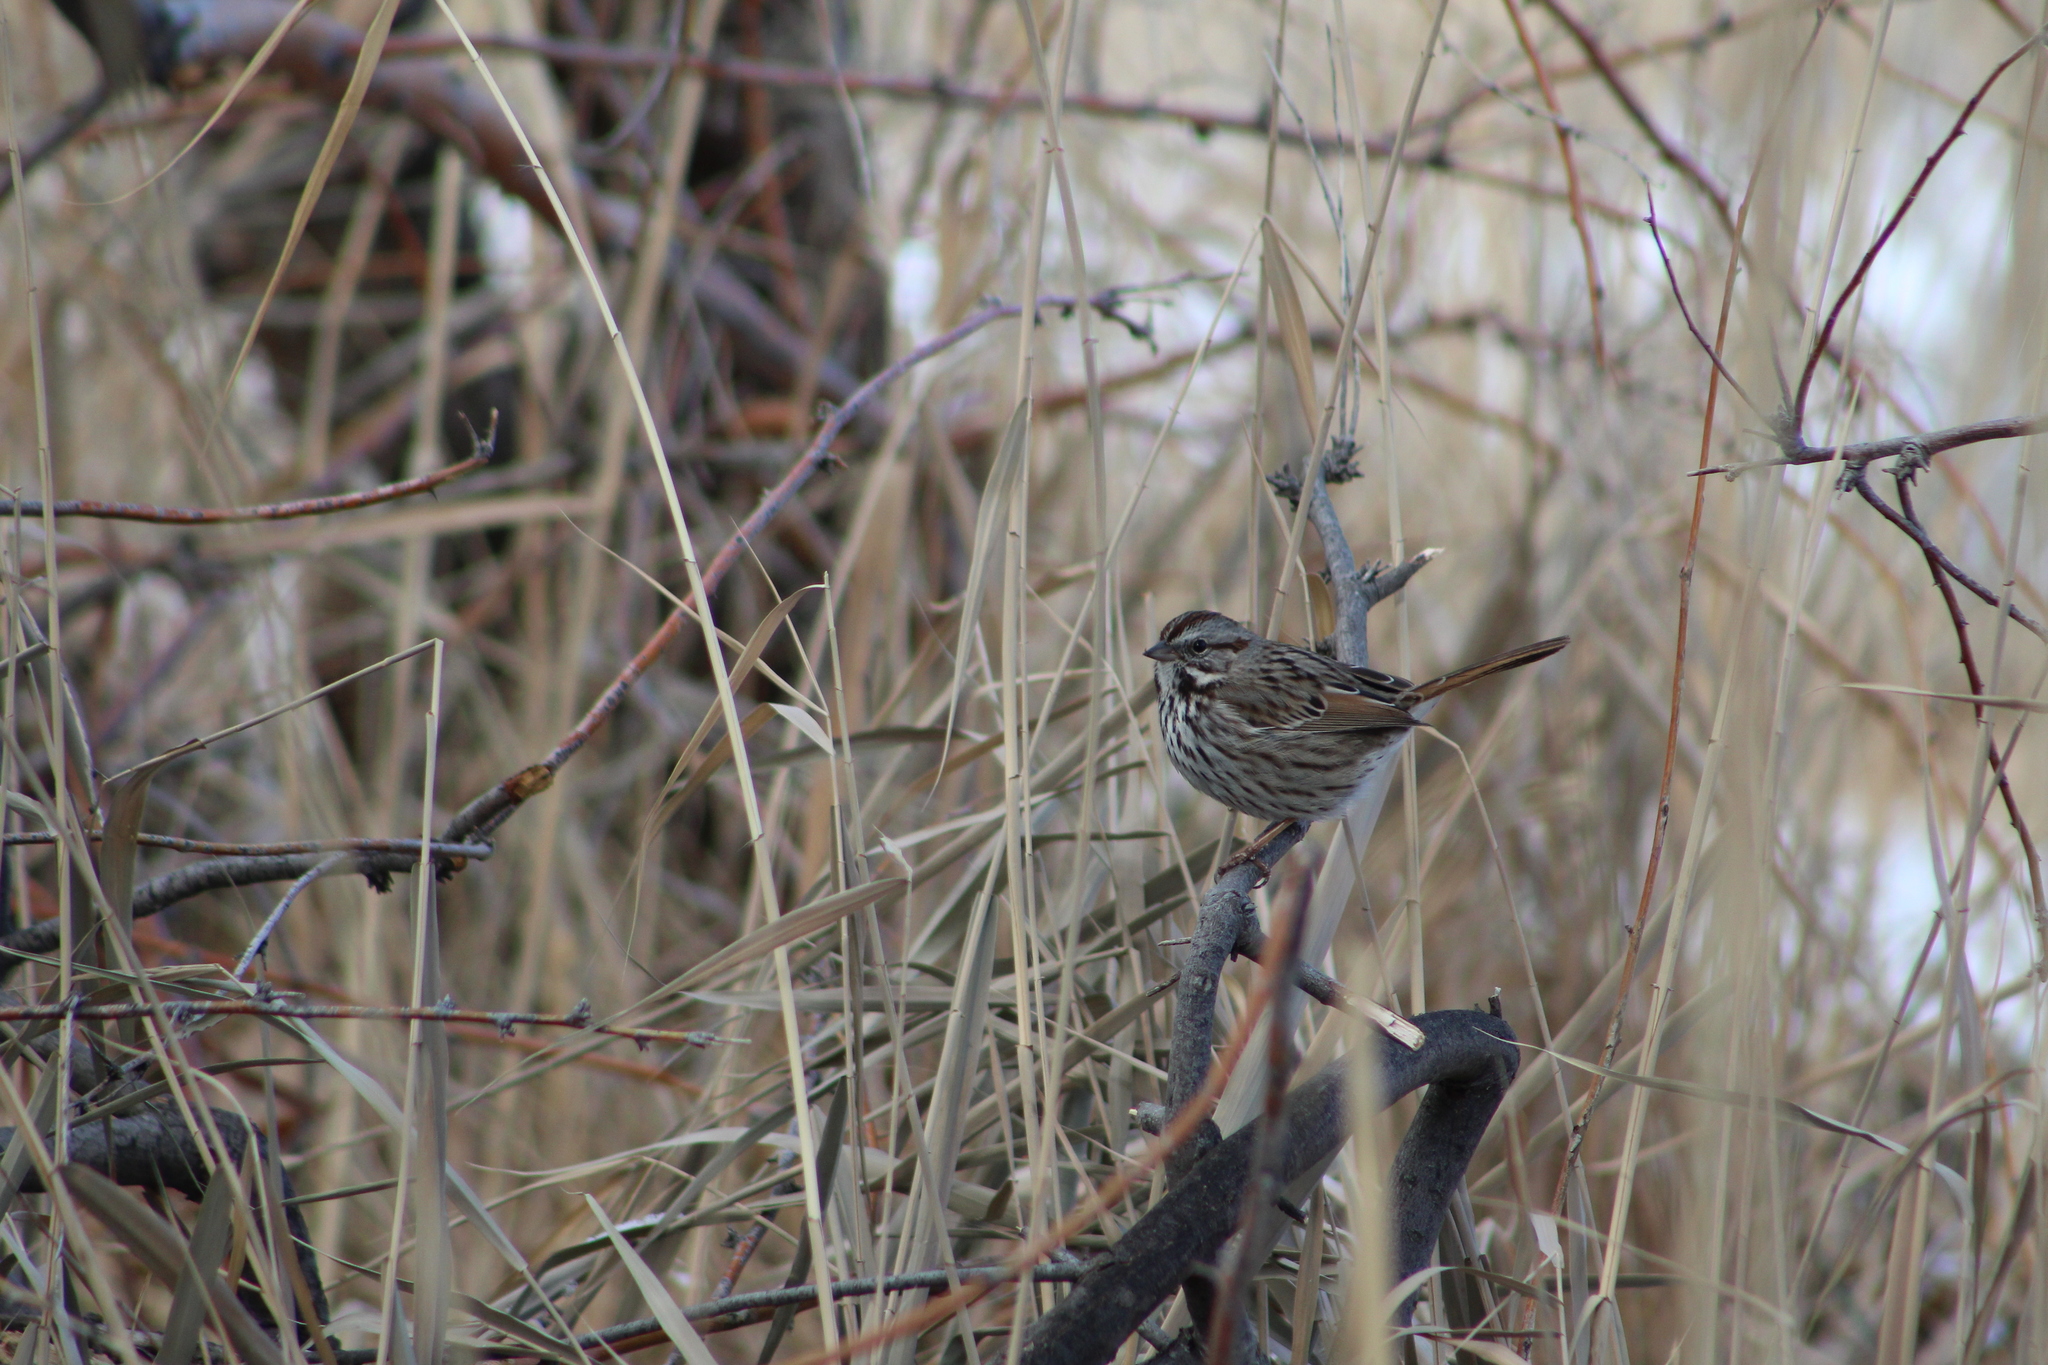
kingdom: Animalia
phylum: Chordata
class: Aves
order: Passeriformes
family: Passerellidae
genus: Melospiza
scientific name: Melospiza melodia
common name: Song sparrow
